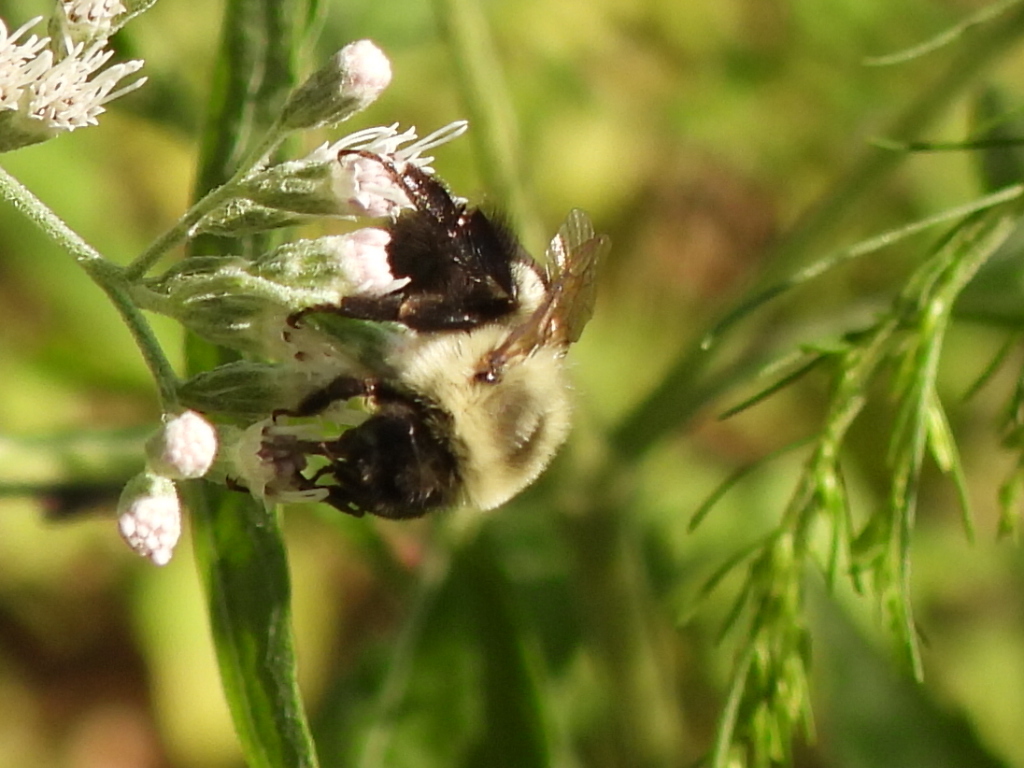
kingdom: Animalia
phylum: Arthropoda
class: Insecta
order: Hymenoptera
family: Apidae
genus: Bombus
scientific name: Bombus impatiens
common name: Common eastern bumble bee
